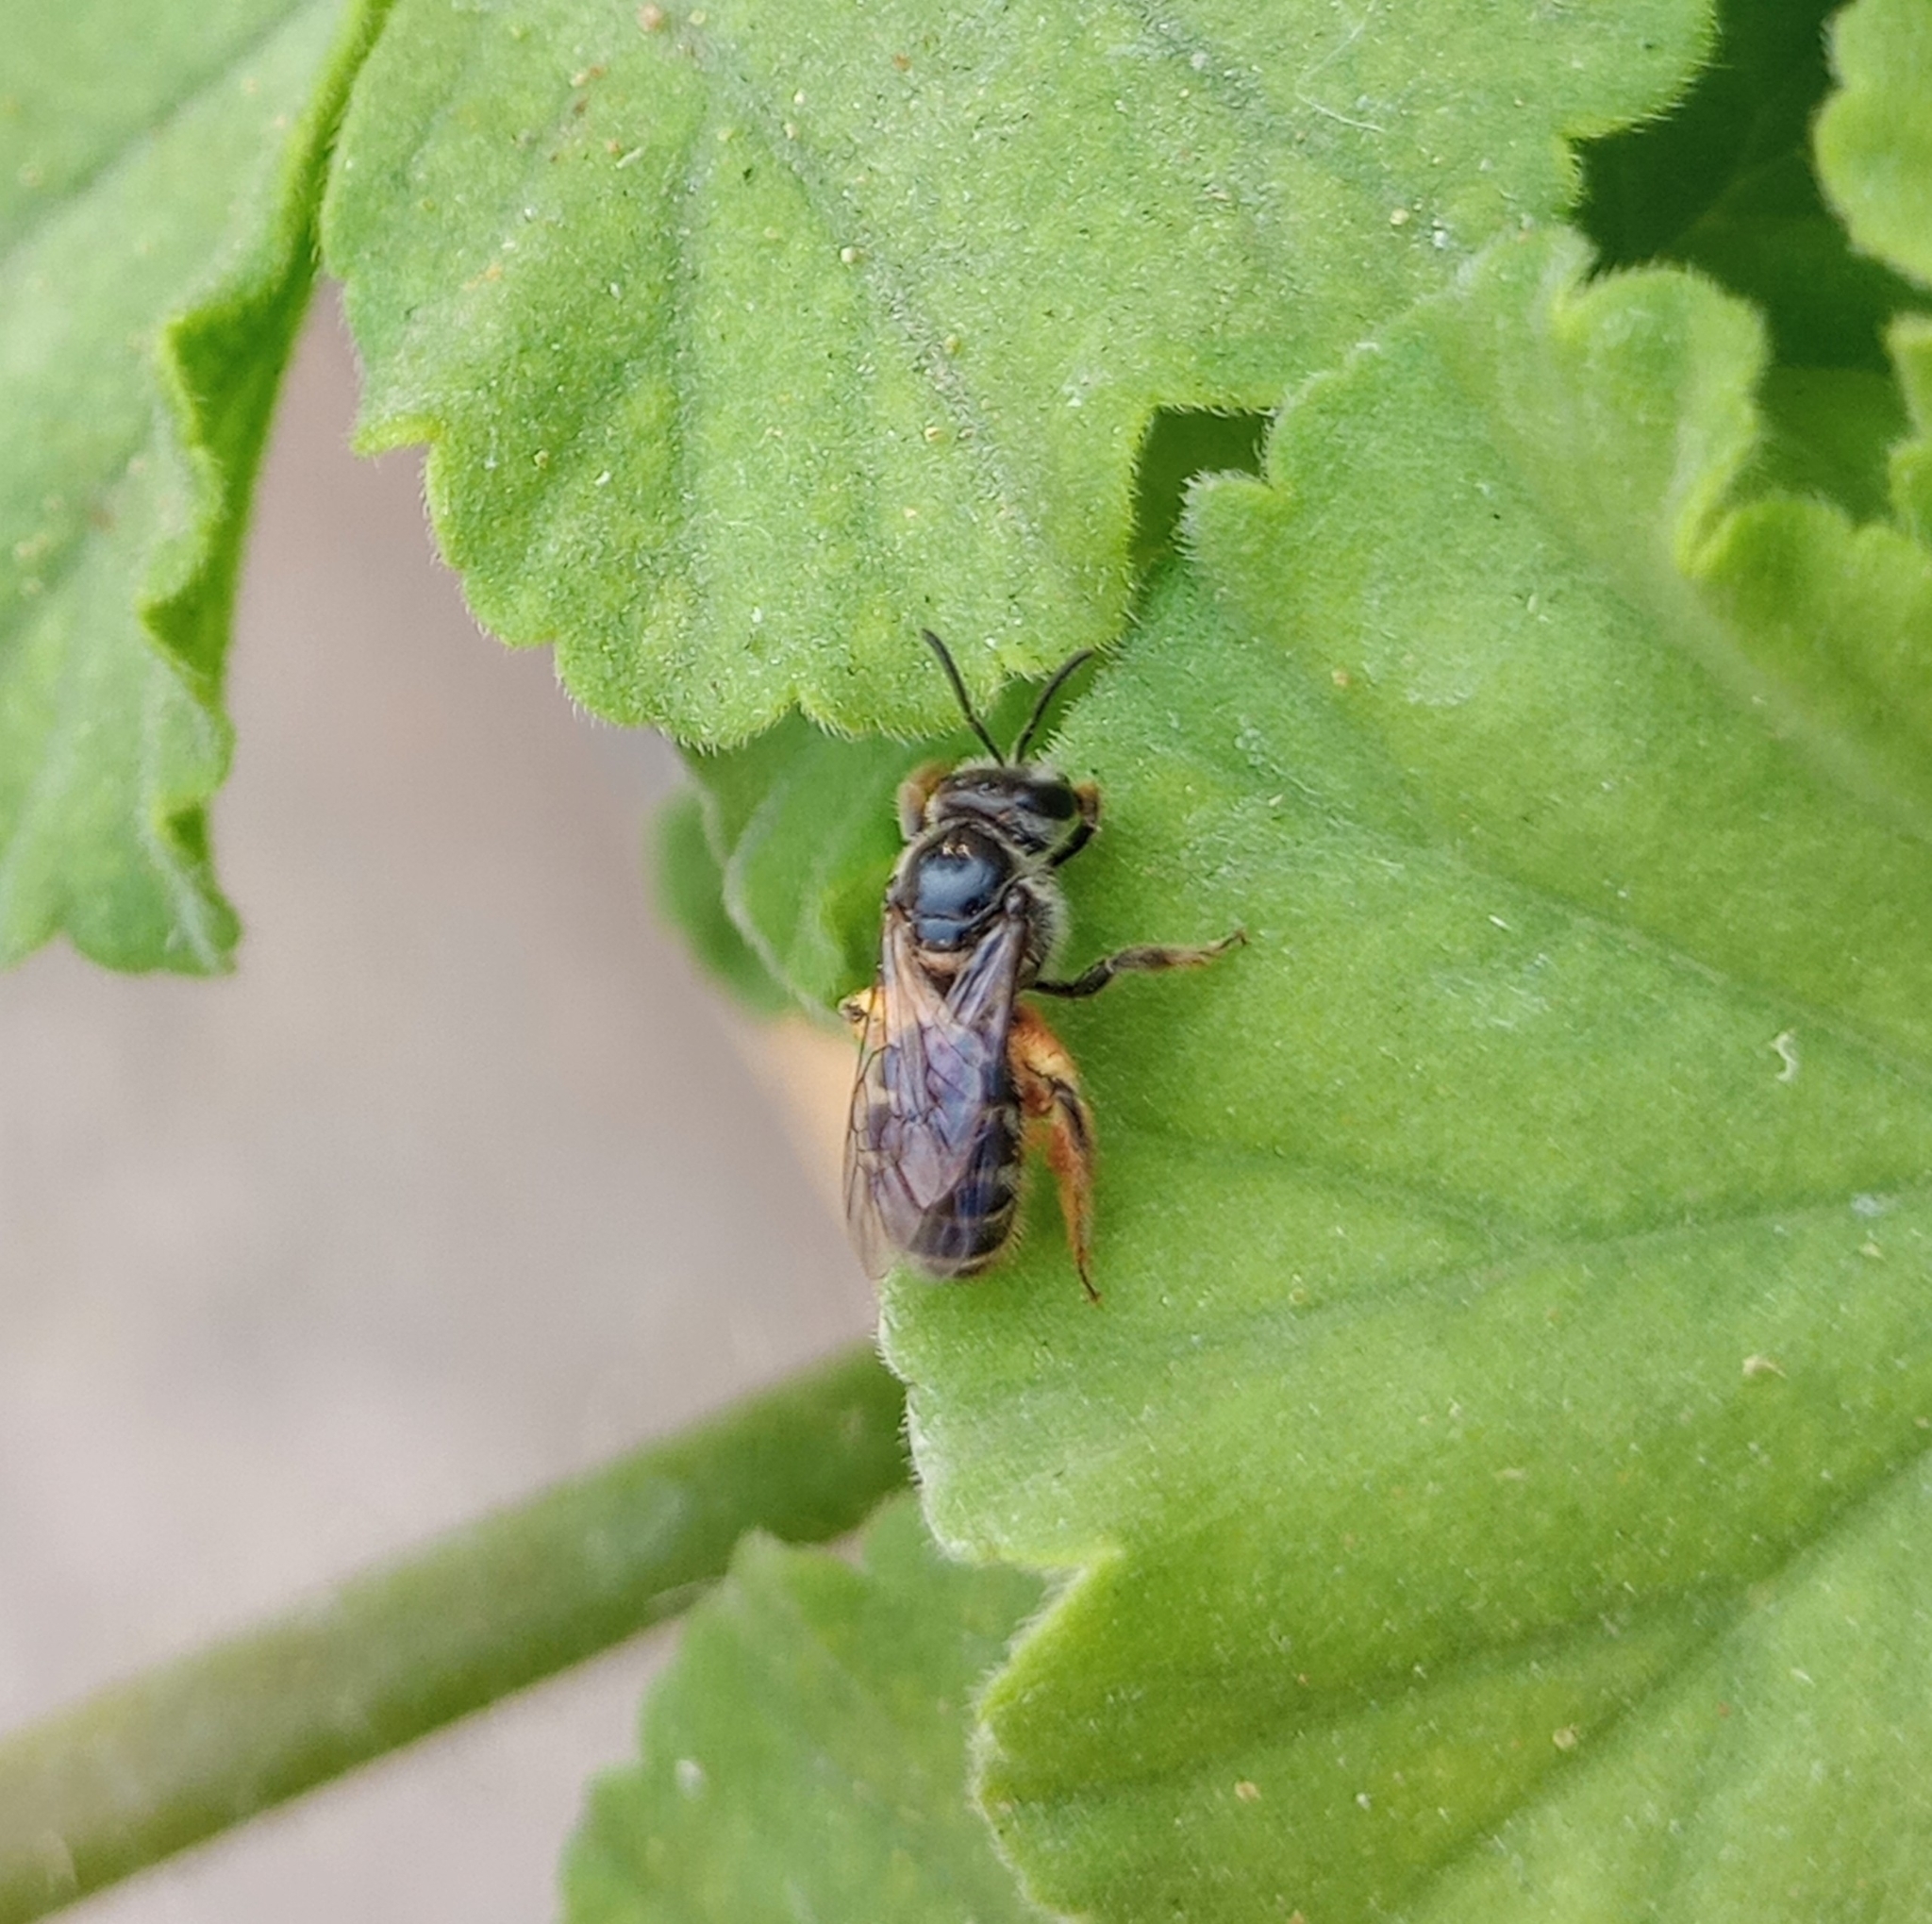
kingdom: Animalia
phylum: Arthropoda
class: Insecta
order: Hymenoptera
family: Halictidae
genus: Lasioglossum
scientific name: Lasioglossum albescens
